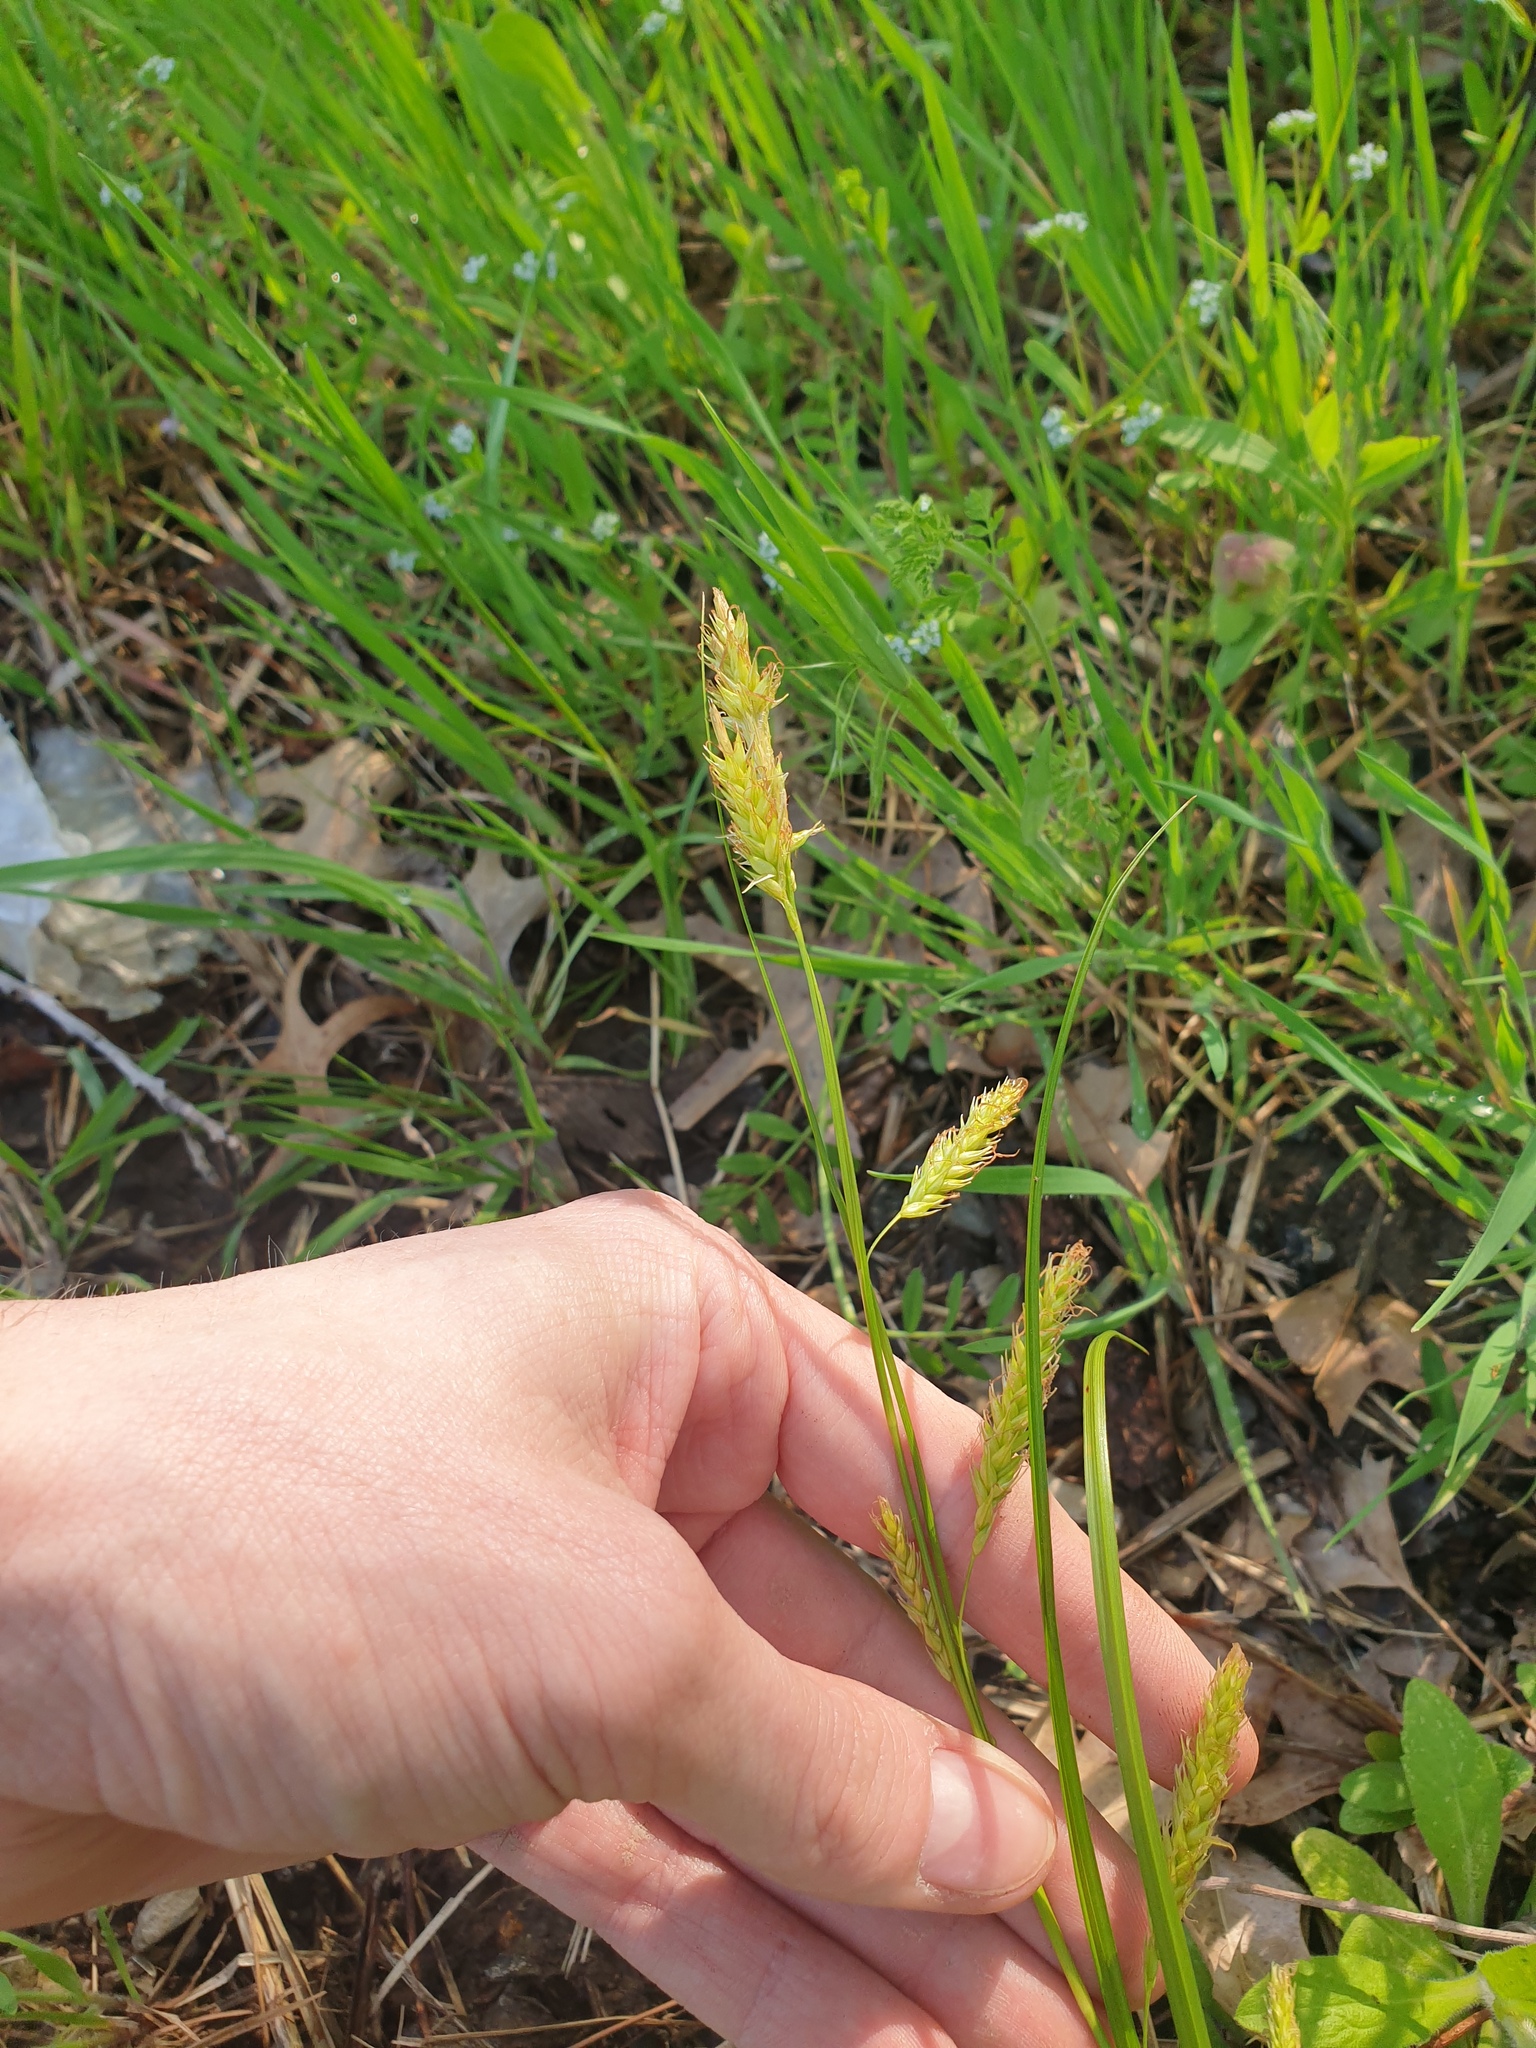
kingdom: Plantae
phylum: Tracheophyta
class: Liliopsida
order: Poales
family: Cyperaceae
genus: Carex
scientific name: Carex cherokeensis
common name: Cherokee sedge
